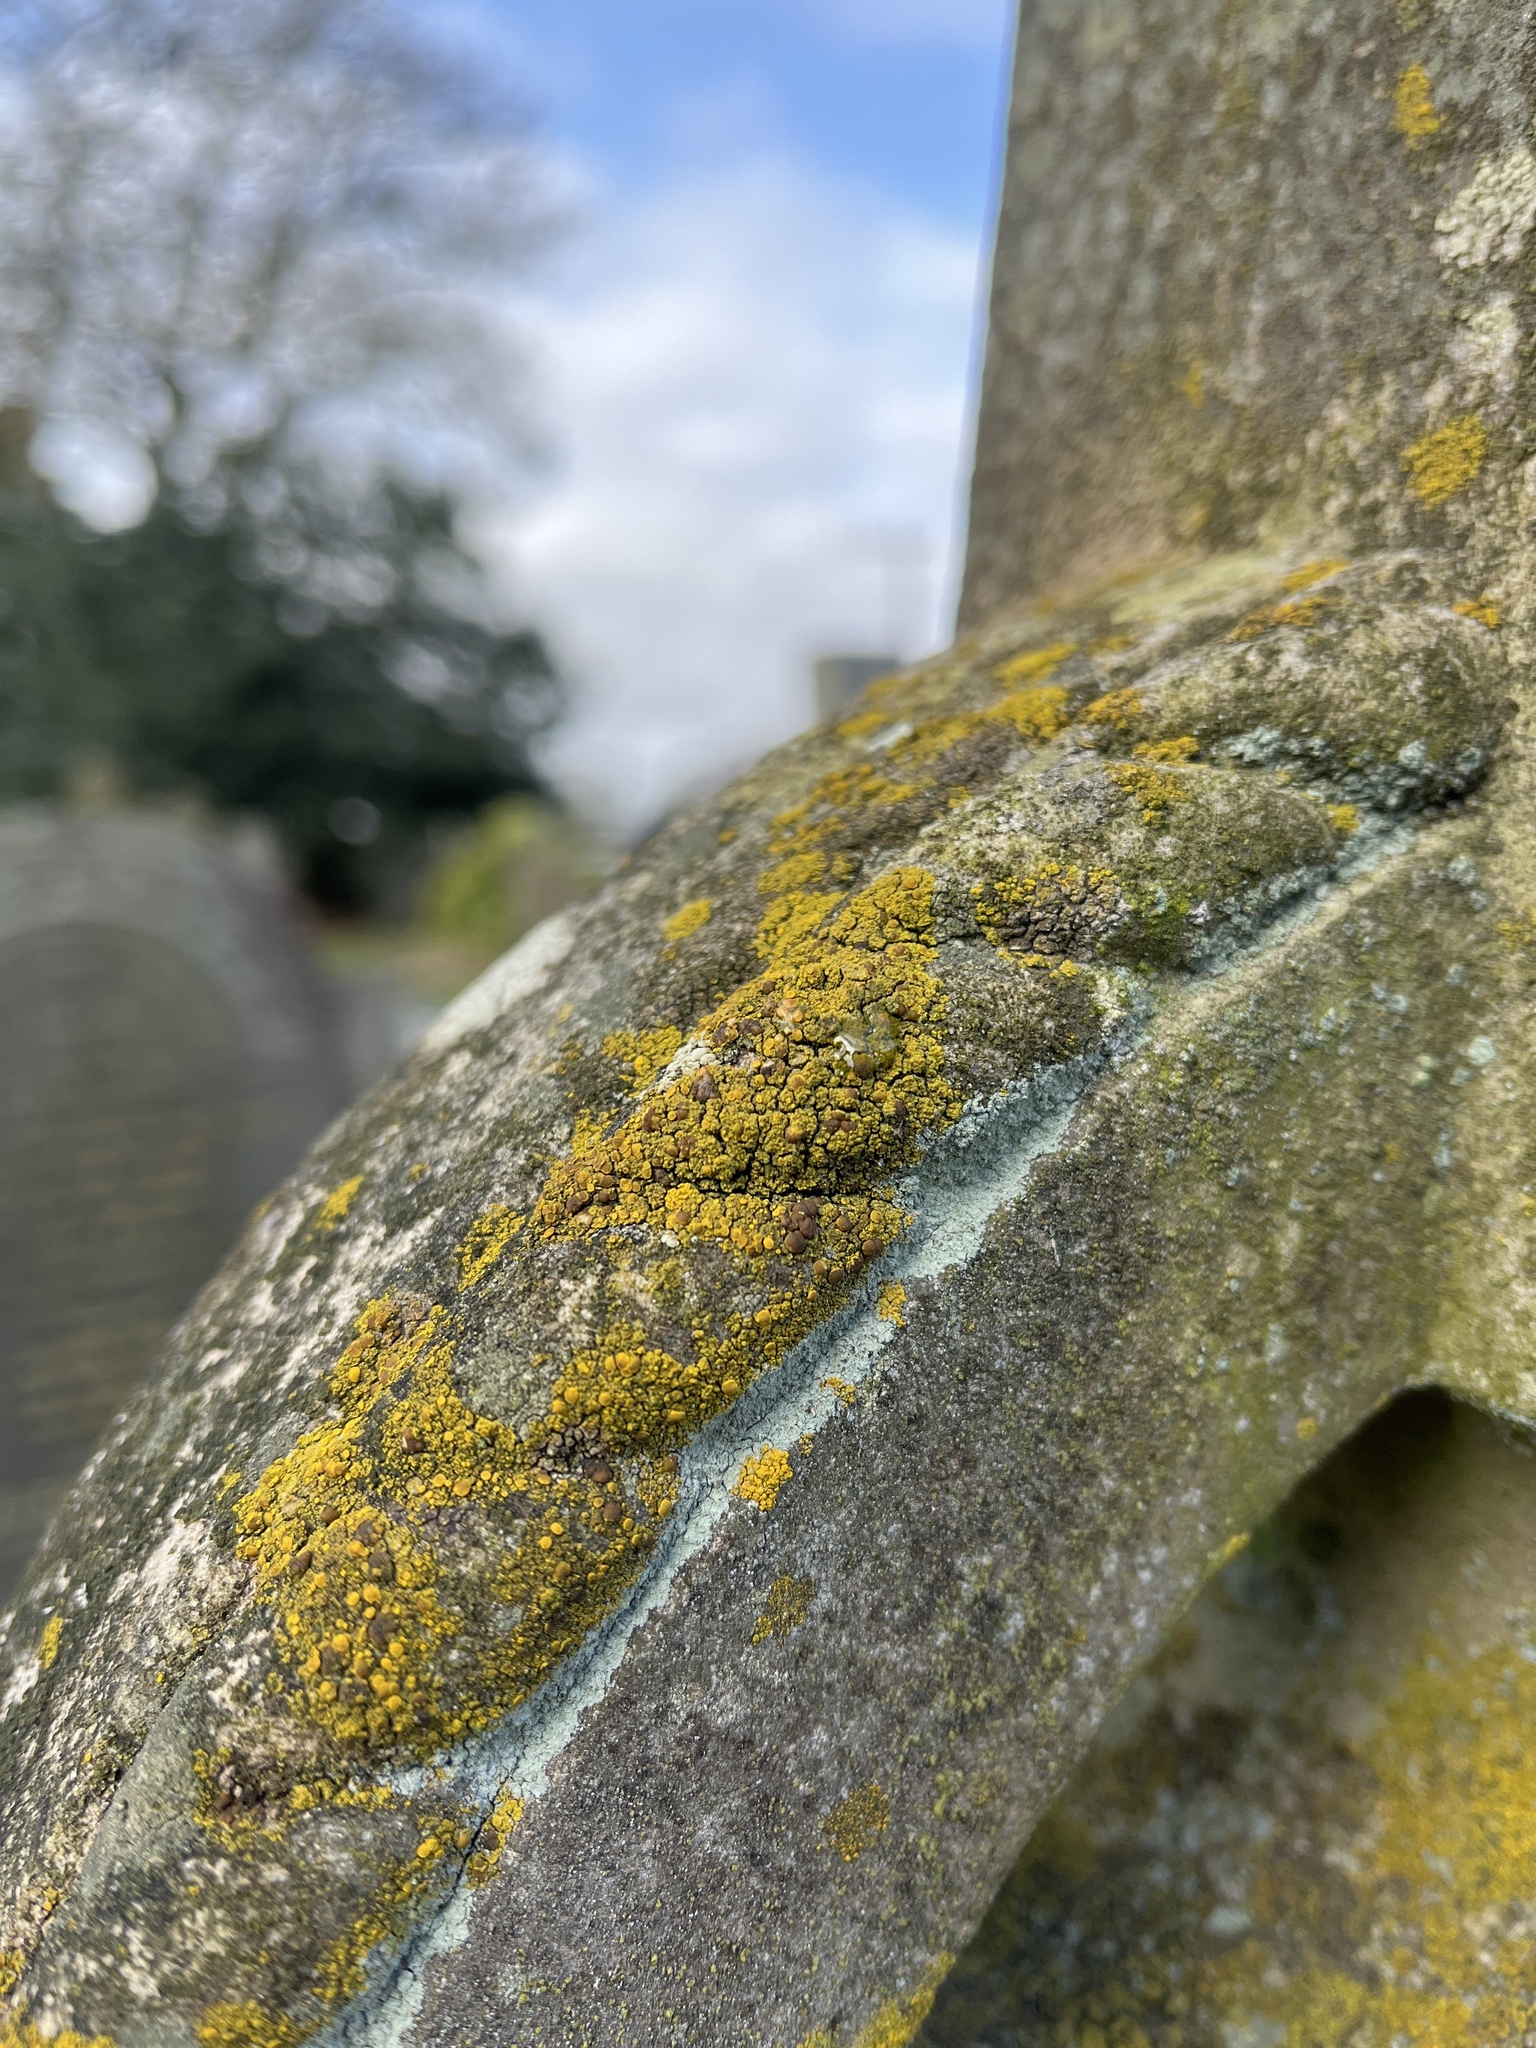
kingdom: Fungi
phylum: Ascomycota
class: Candelariomycetes
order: Candelariales
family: Candelariaceae
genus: Candelariella
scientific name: Candelariella vitellina
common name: Common goldspeck
